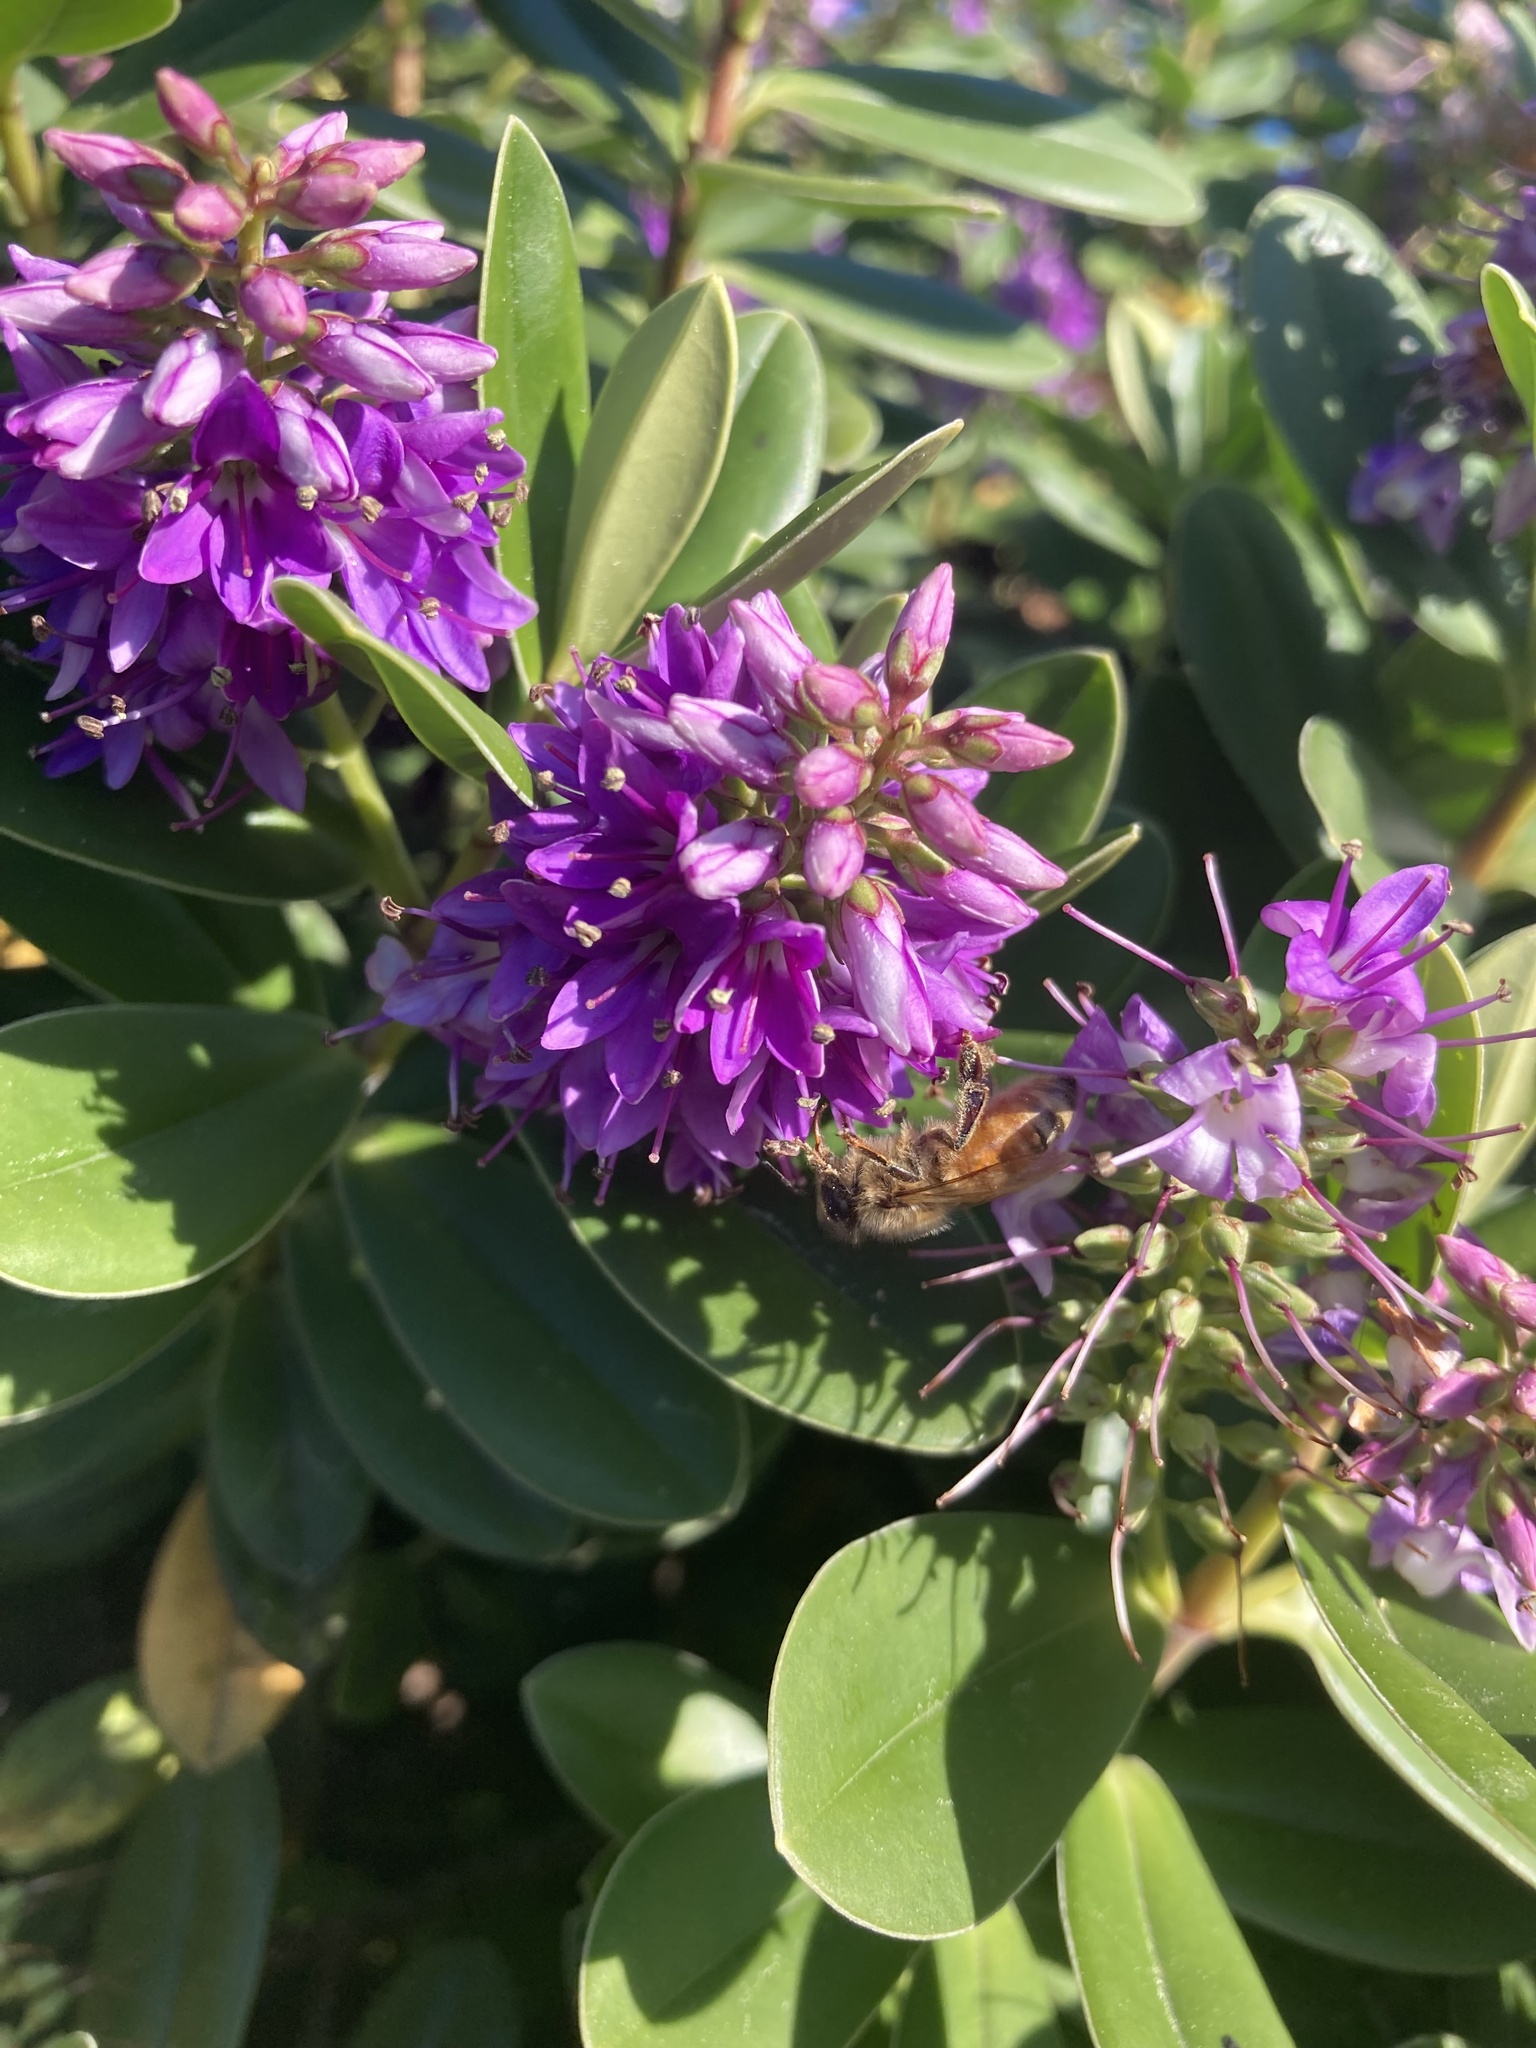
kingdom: Animalia
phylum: Arthropoda
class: Insecta
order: Hymenoptera
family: Apidae
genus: Apis
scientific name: Apis mellifera
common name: Honey bee
